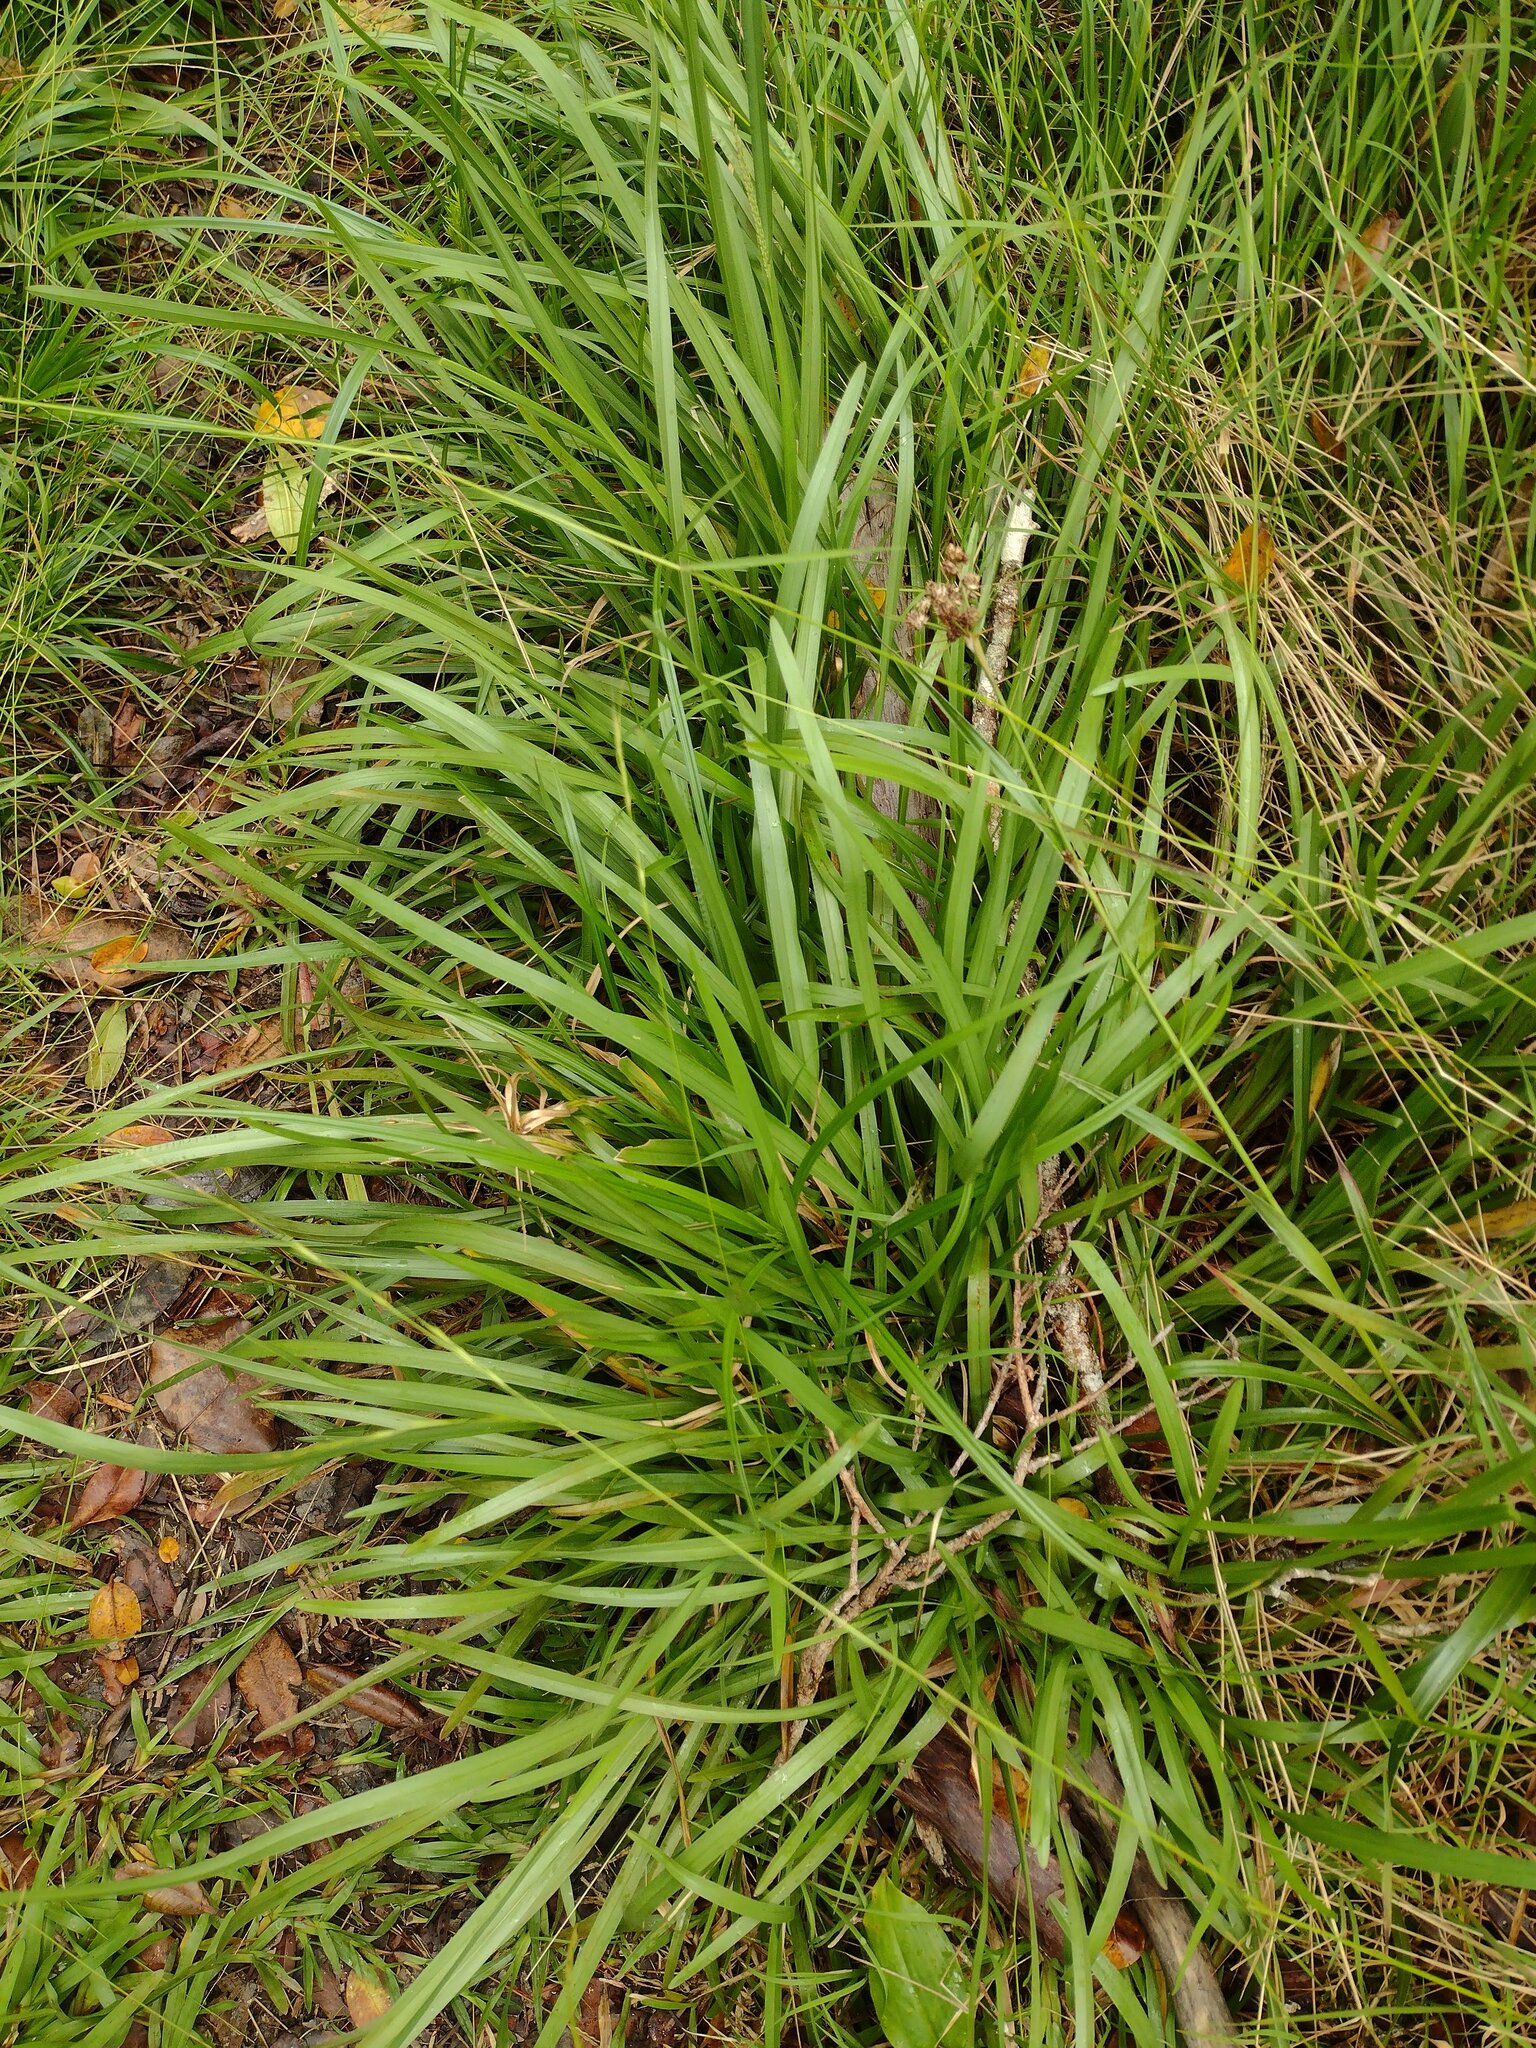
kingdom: Plantae
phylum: Tracheophyta
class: Liliopsida
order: Poales
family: Juncaceae
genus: Juncus
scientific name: Juncus planifolius
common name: Broadleaf rush
